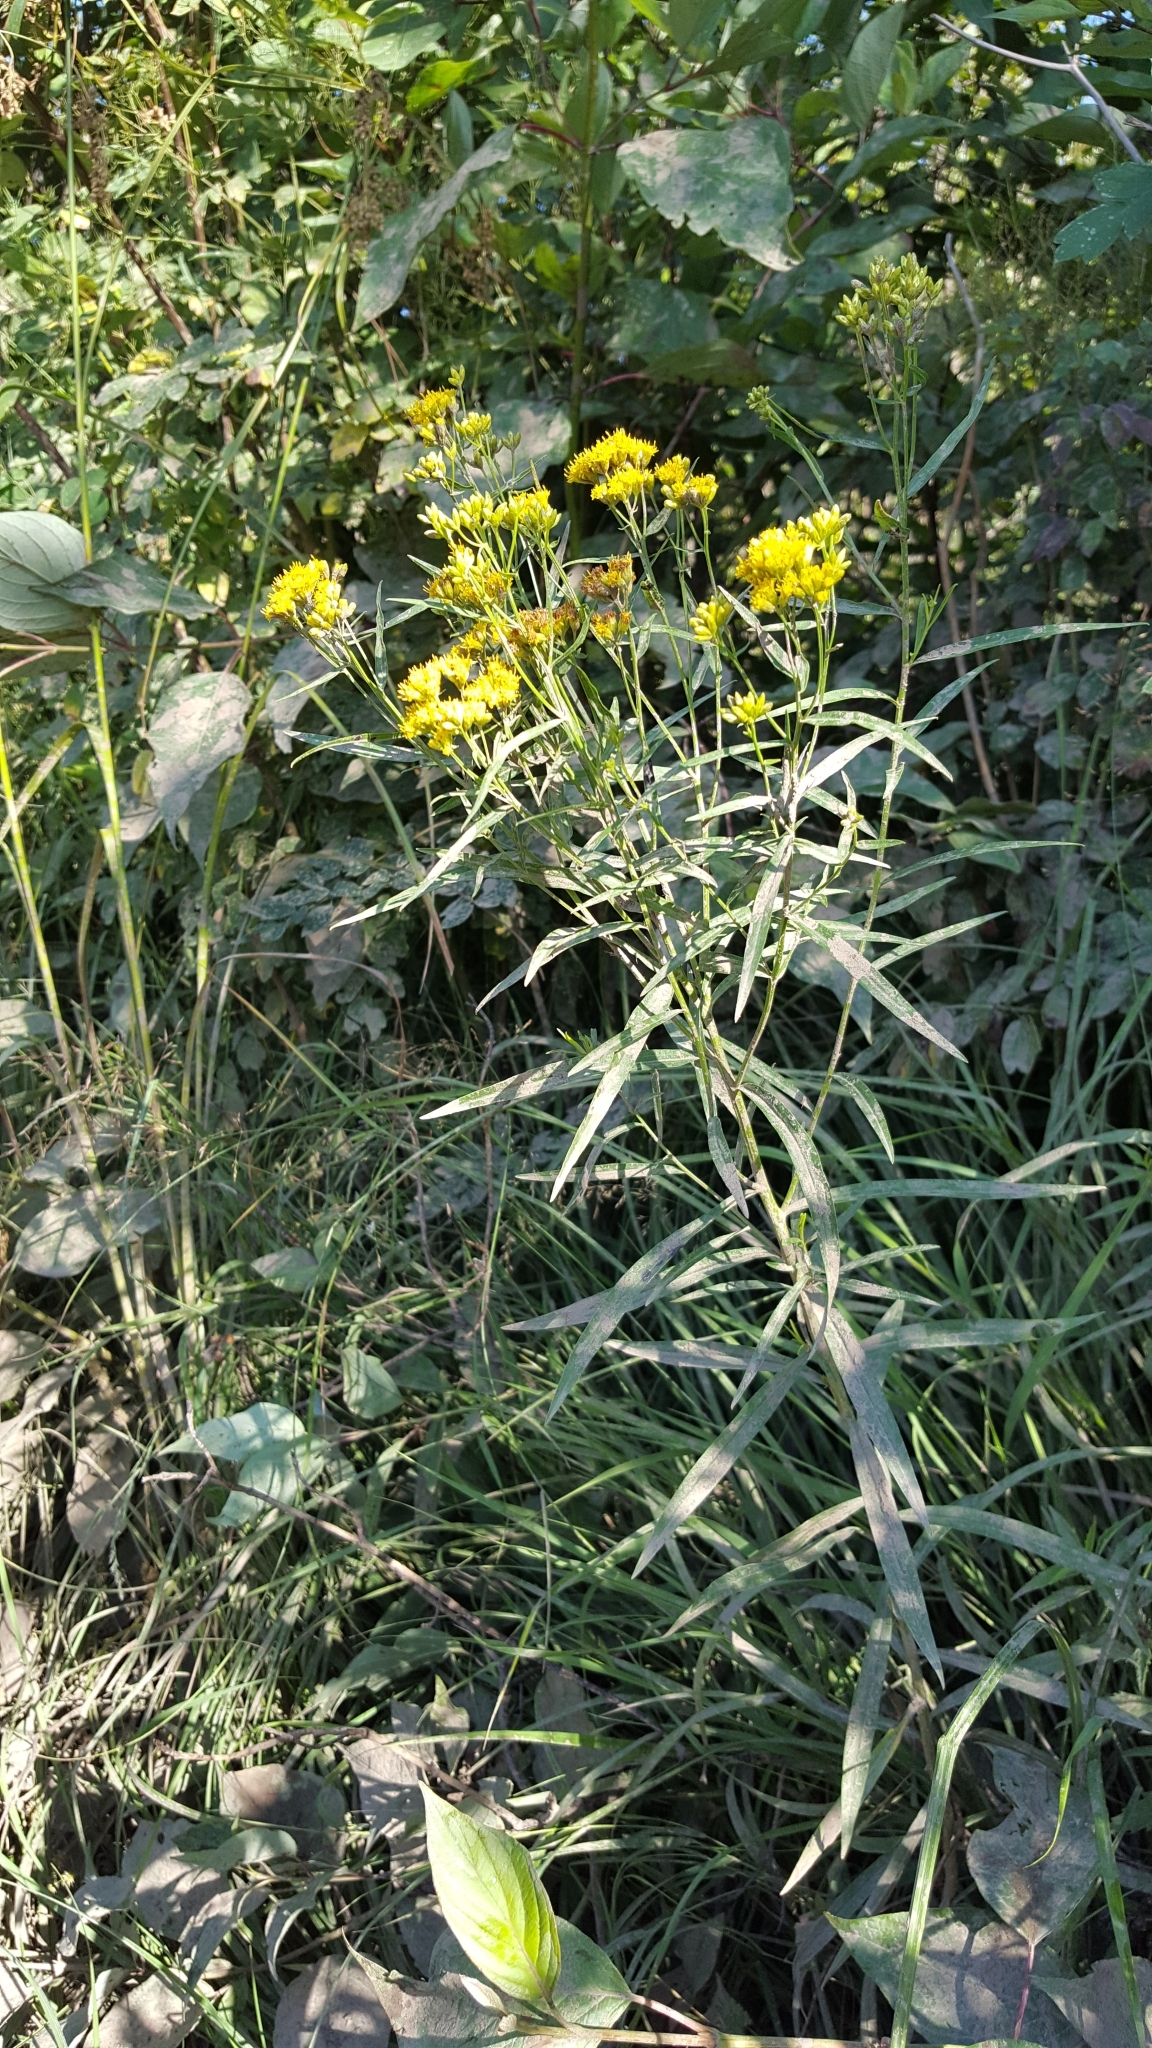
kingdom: Plantae
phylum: Tracheophyta
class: Magnoliopsida
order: Asterales
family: Asteraceae
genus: Euthamia
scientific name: Euthamia graminifolia
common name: Common goldentop
